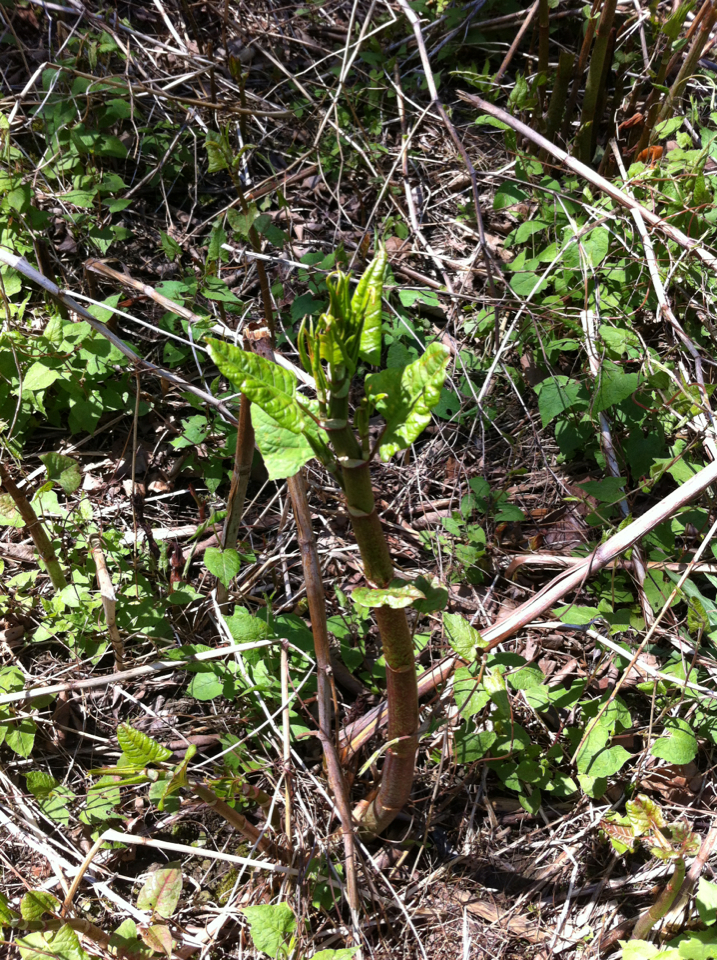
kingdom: Plantae
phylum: Tracheophyta
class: Magnoliopsida
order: Caryophyllales
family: Polygonaceae
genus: Reynoutria
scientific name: Reynoutria japonica
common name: Japanese knotweed
